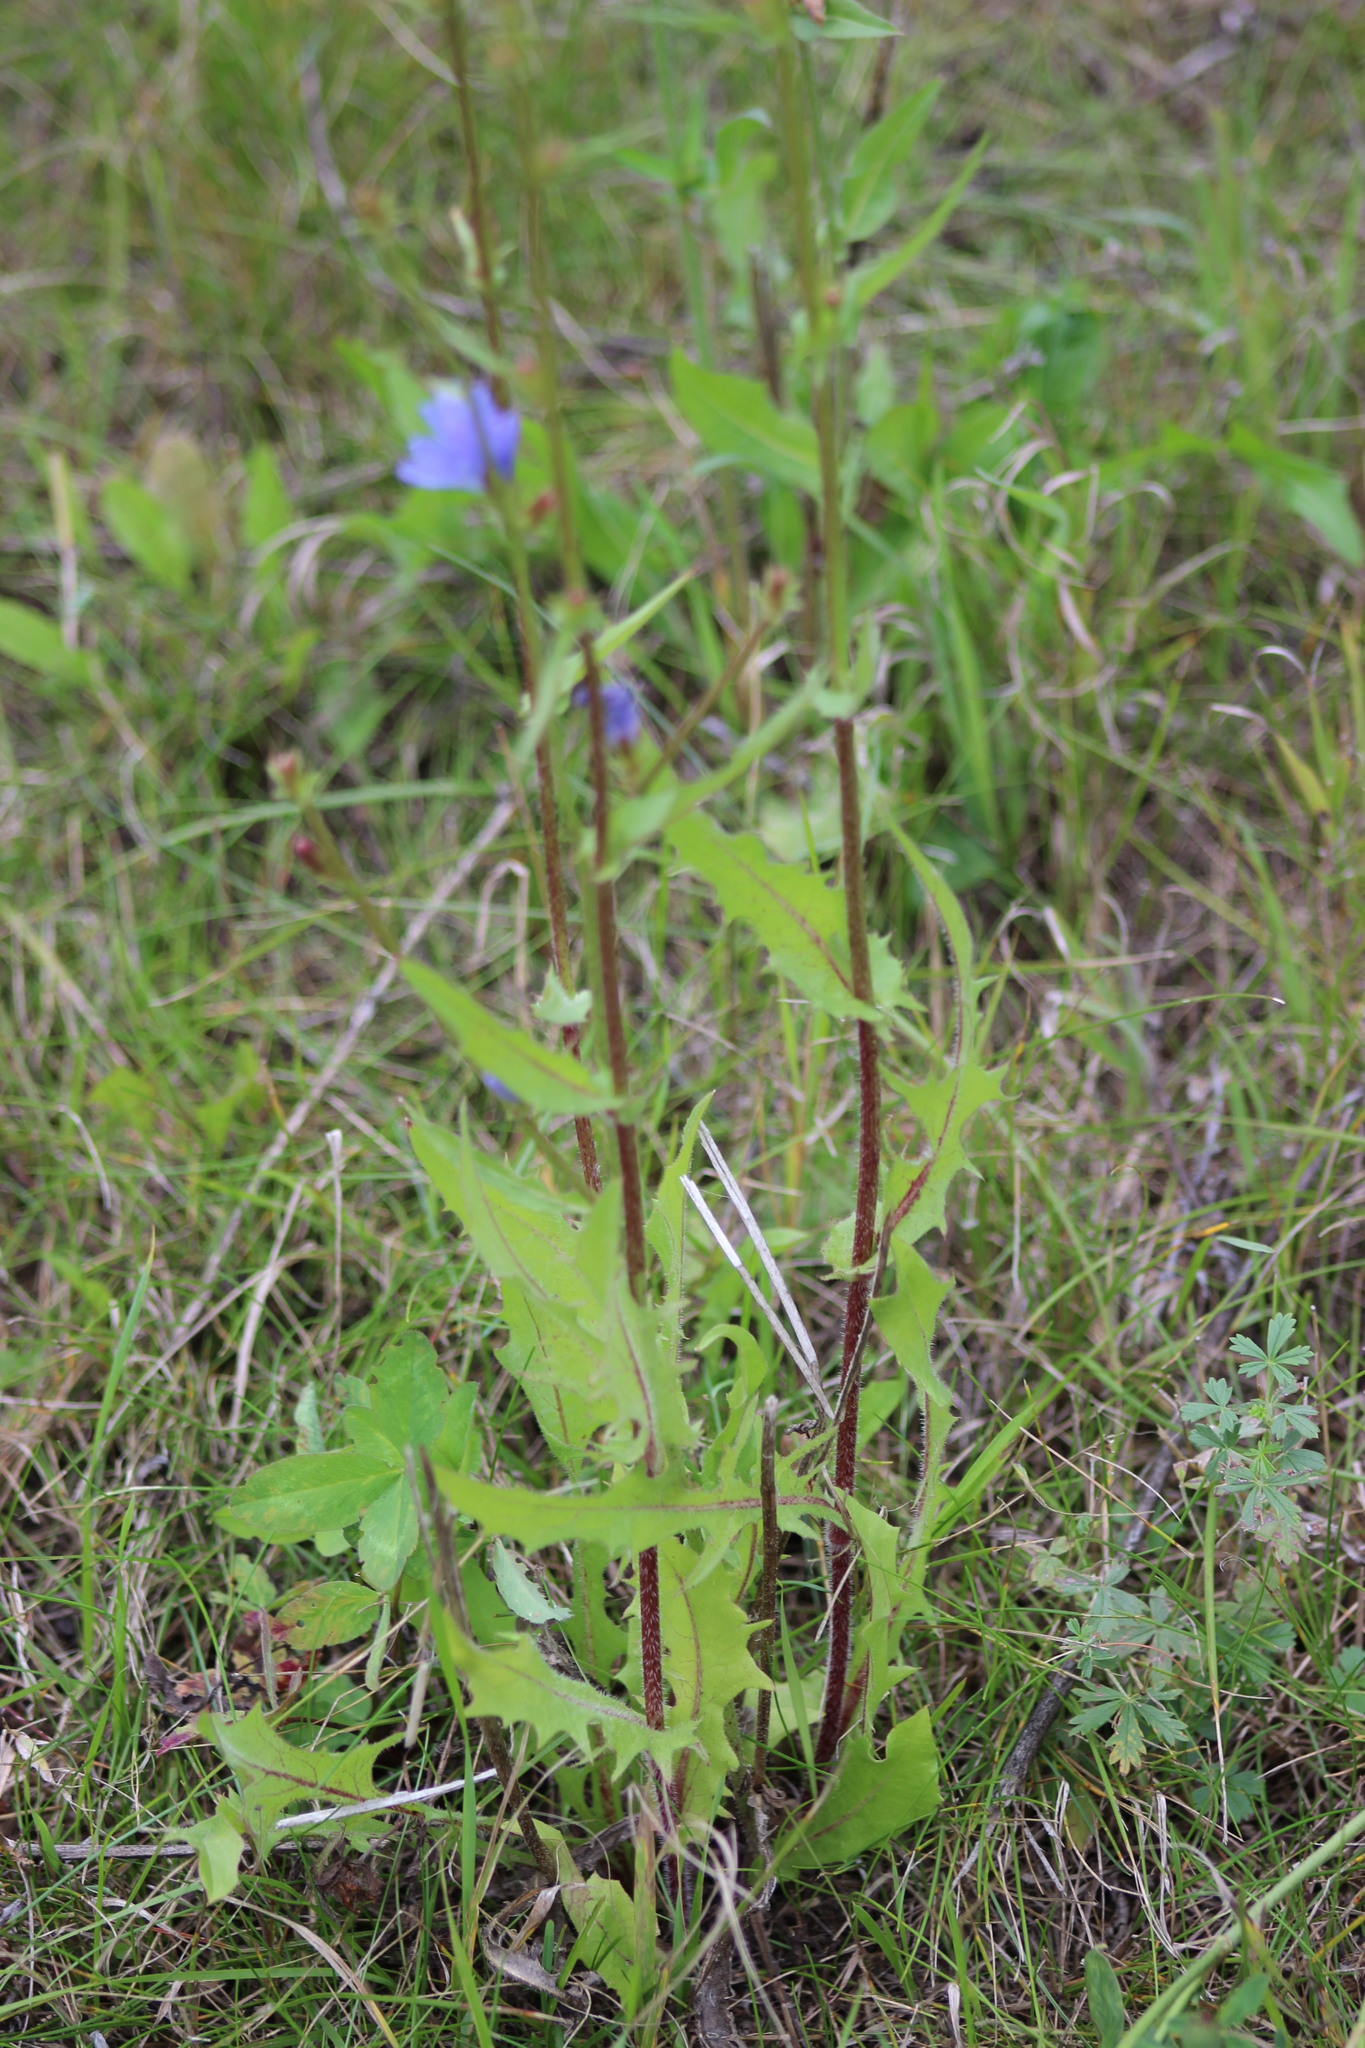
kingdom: Plantae
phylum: Tracheophyta
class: Magnoliopsida
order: Asterales
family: Asteraceae
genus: Cichorium
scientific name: Cichorium intybus
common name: Chicory
